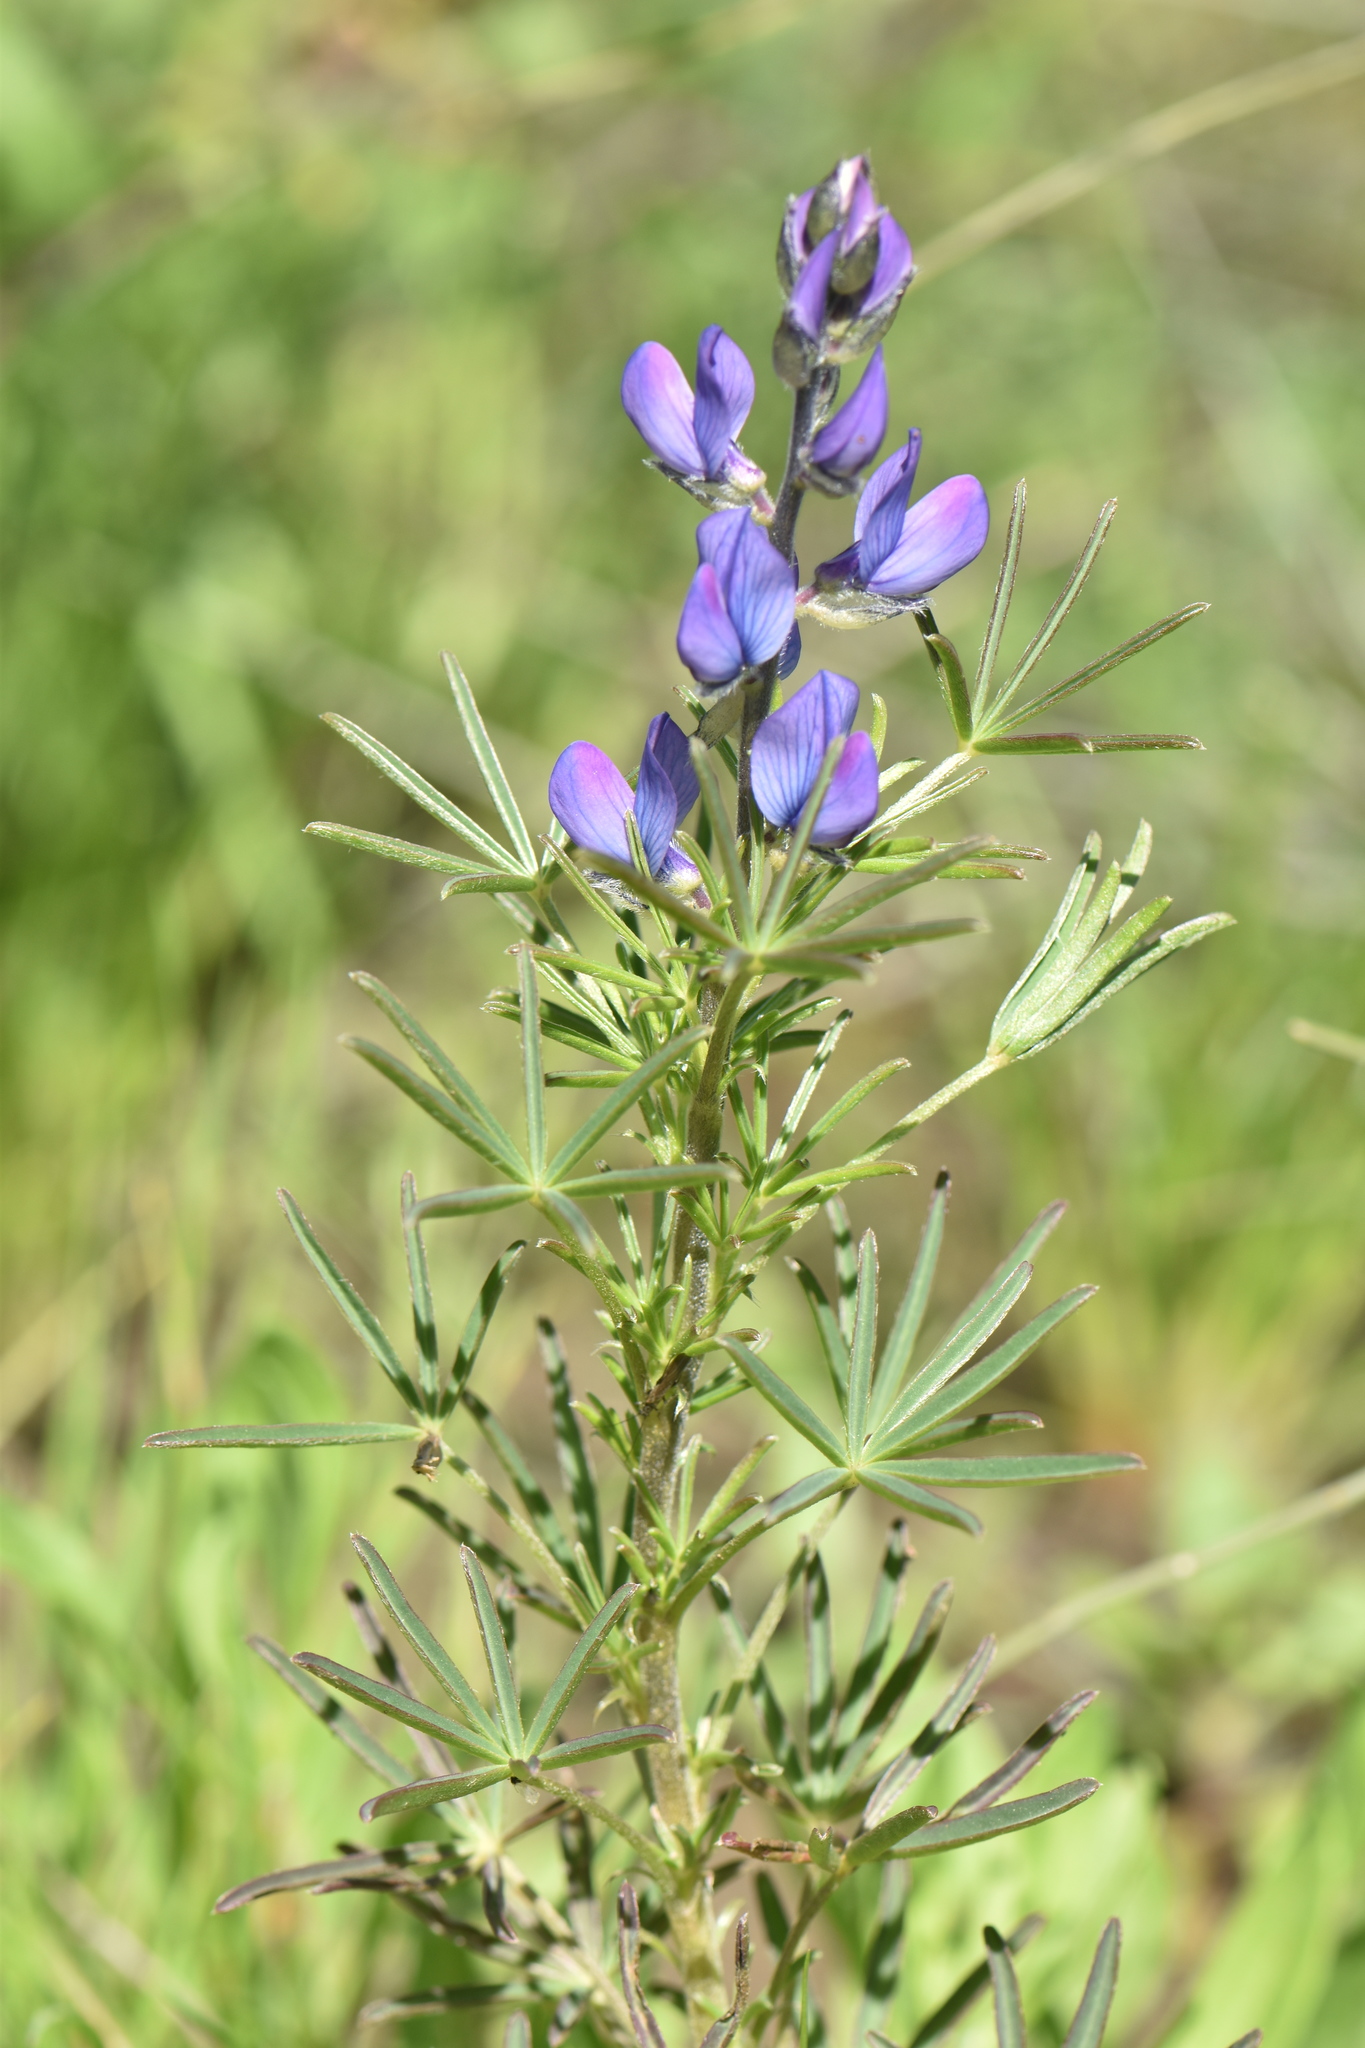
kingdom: Plantae
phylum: Tracheophyta
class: Magnoliopsida
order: Fabales
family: Fabaceae
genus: Lupinus
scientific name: Lupinus angustifolius
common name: Narrow-leaved lupin
